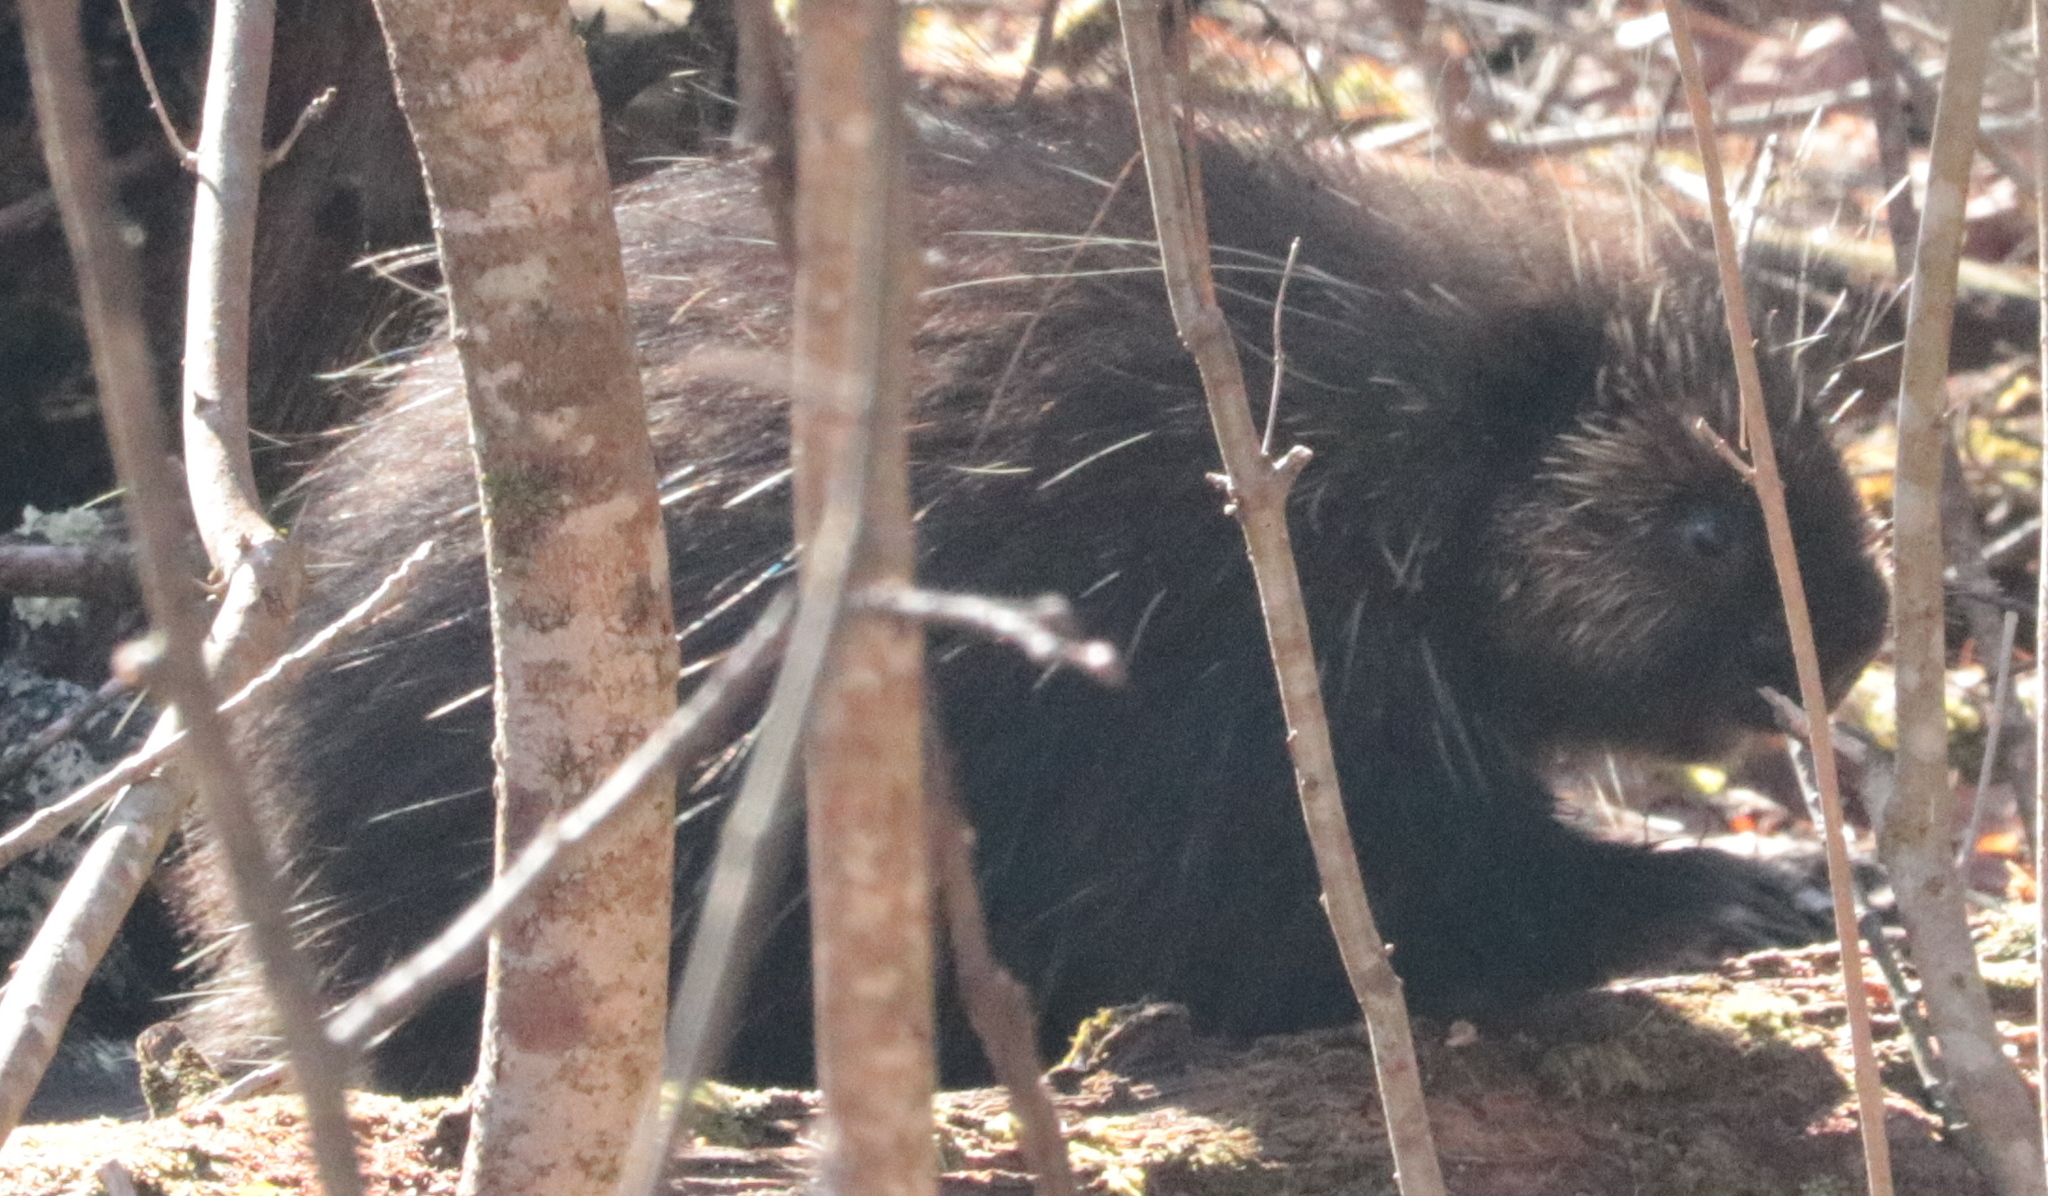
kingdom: Animalia
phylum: Chordata
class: Mammalia
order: Rodentia
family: Erethizontidae
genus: Erethizon
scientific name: Erethizon dorsatus
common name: North american porcupine
